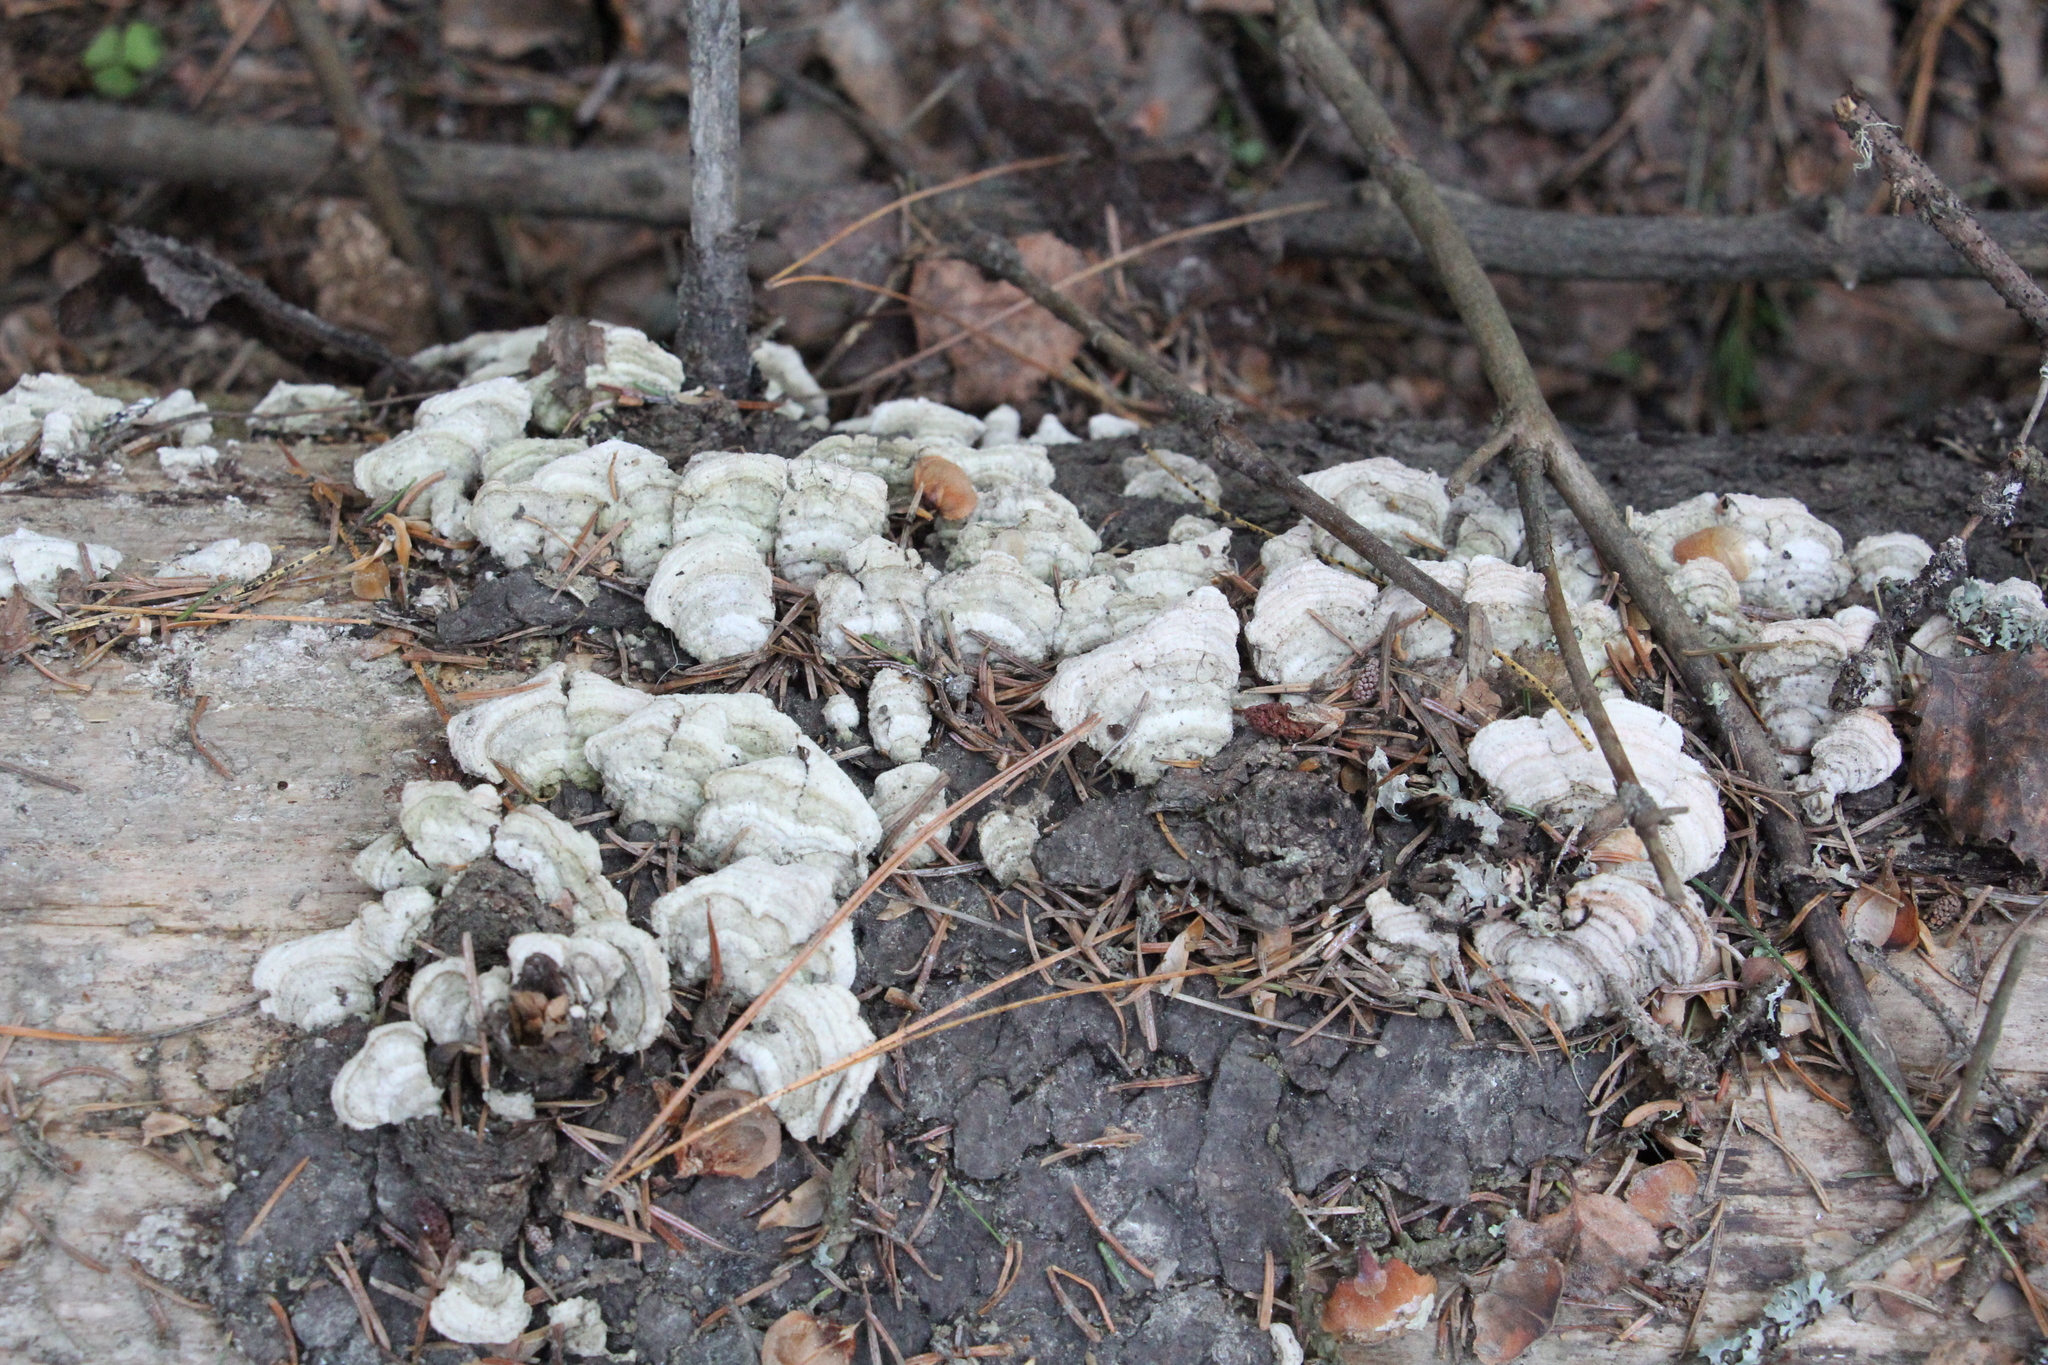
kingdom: Fungi
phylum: Basidiomycota
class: Agaricomycetes
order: Hymenochaetales
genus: Trichaptum
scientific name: Trichaptum fuscoviolaceum
